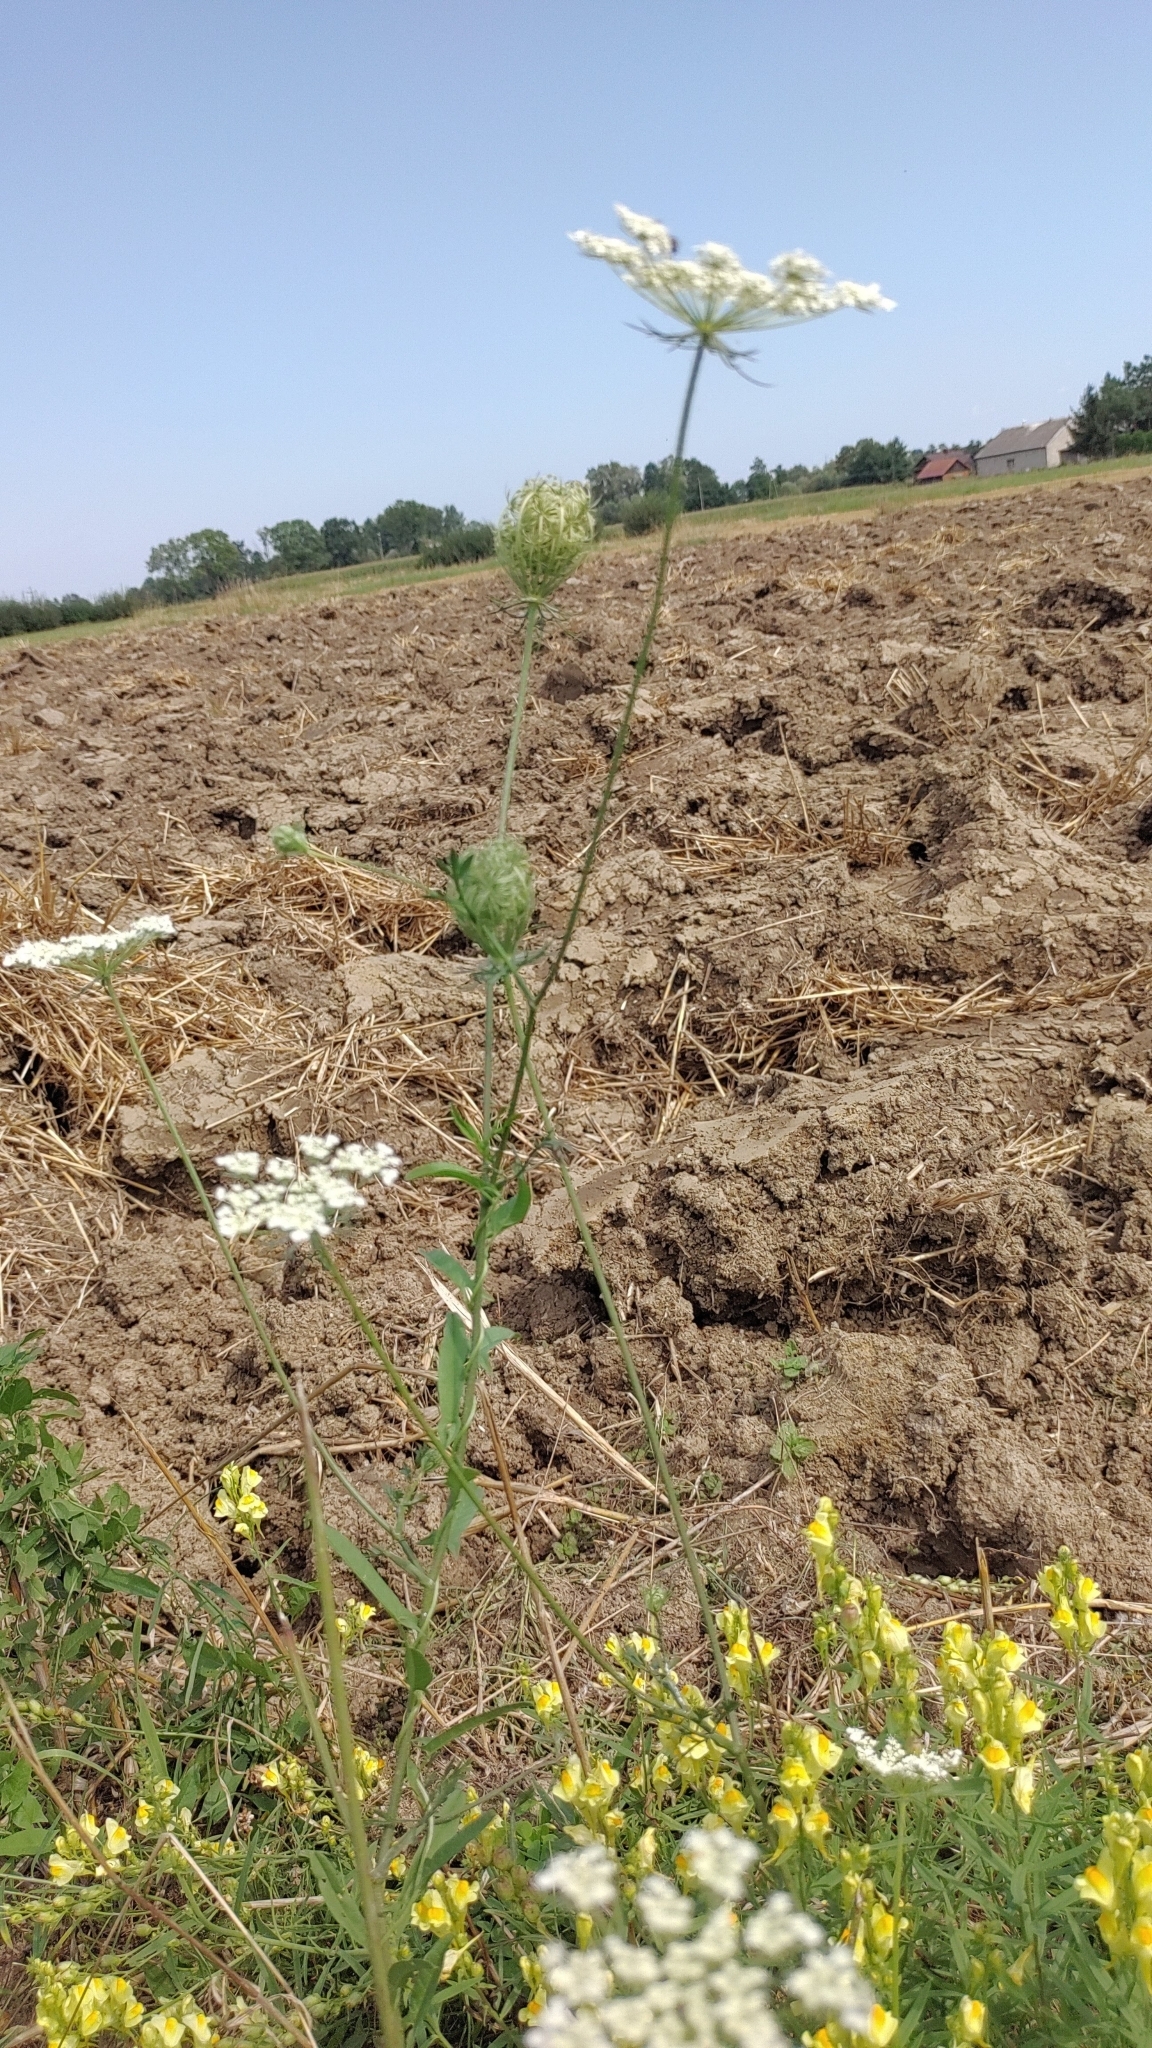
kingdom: Plantae
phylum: Tracheophyta
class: Magnoliopsida
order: Apiales
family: Apiaceae
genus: Daucus
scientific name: Daucus carota
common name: Wild carrot
